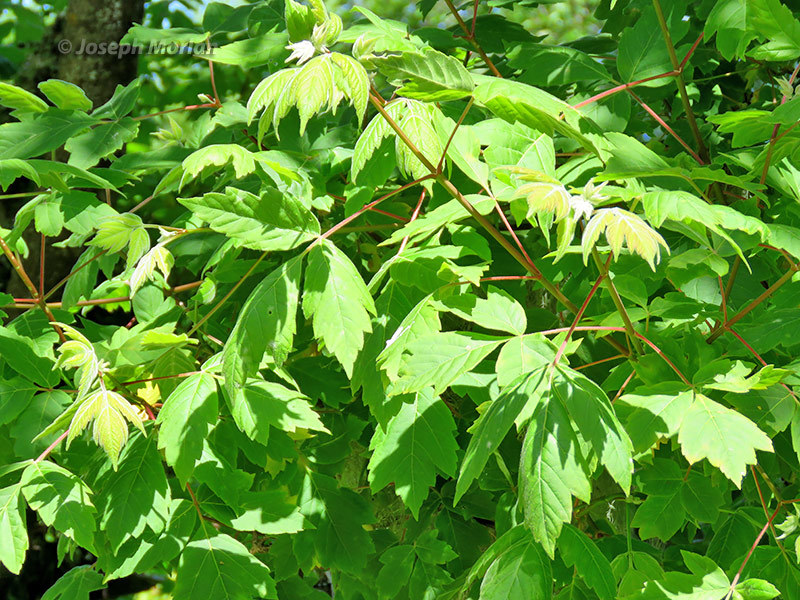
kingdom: Plantae
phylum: Tracheophyta
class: Magnoliopsida
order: Sapindales
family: Sapindaceae
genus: Acer
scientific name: Acer negundo
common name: Ashleaf maple
